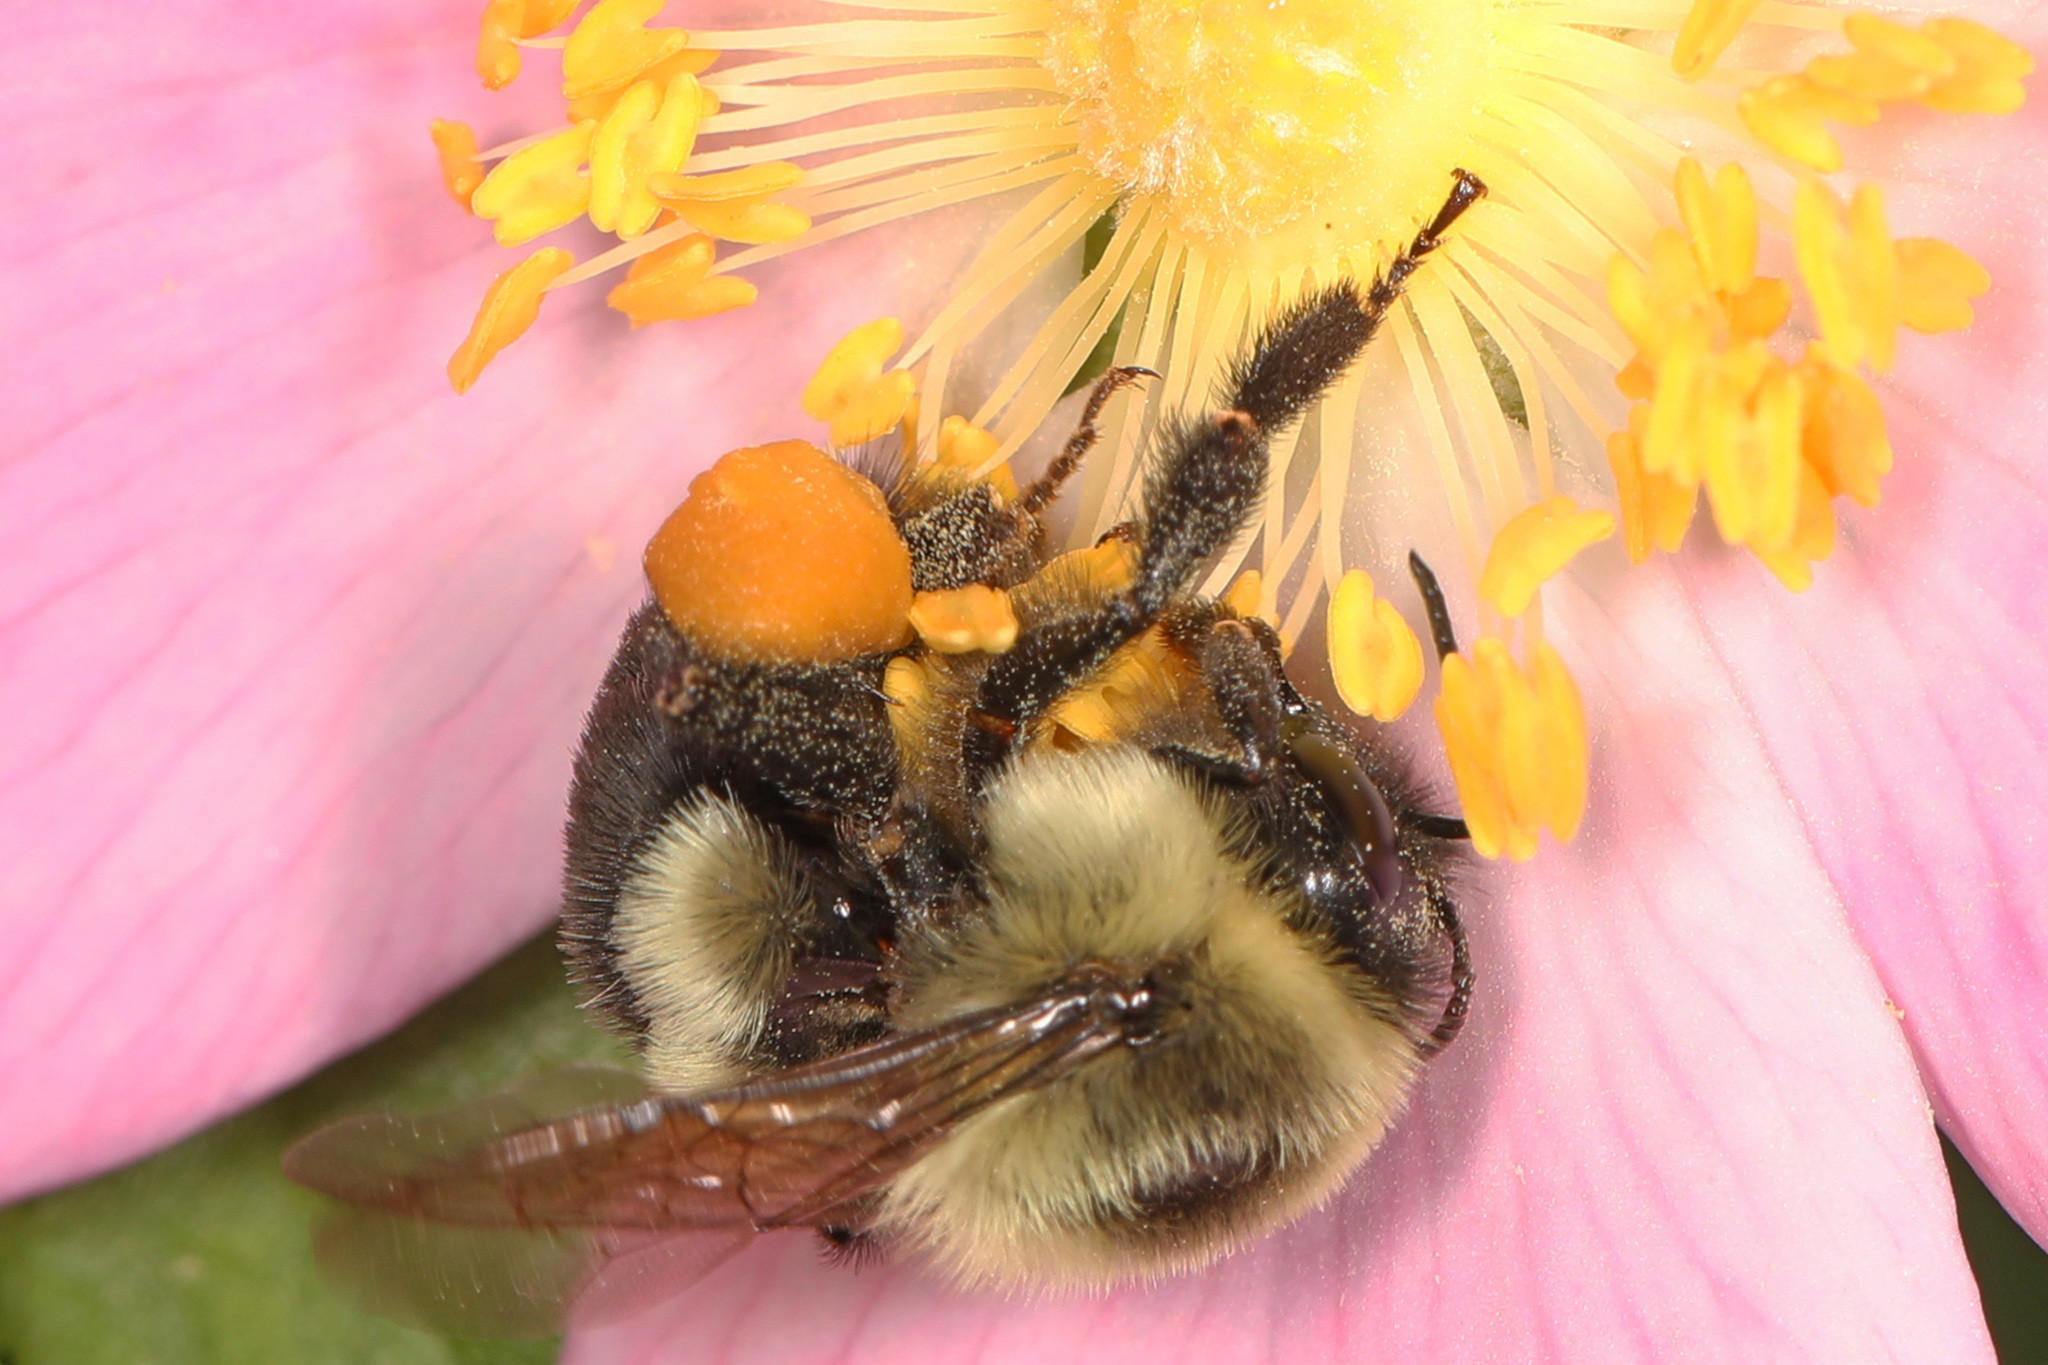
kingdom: Animalia
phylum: Arthropoda
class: Insecta
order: Hymenoptera
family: Apidae
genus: Bombus
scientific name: Bombus impatiens
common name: Common eastern bumble bee
